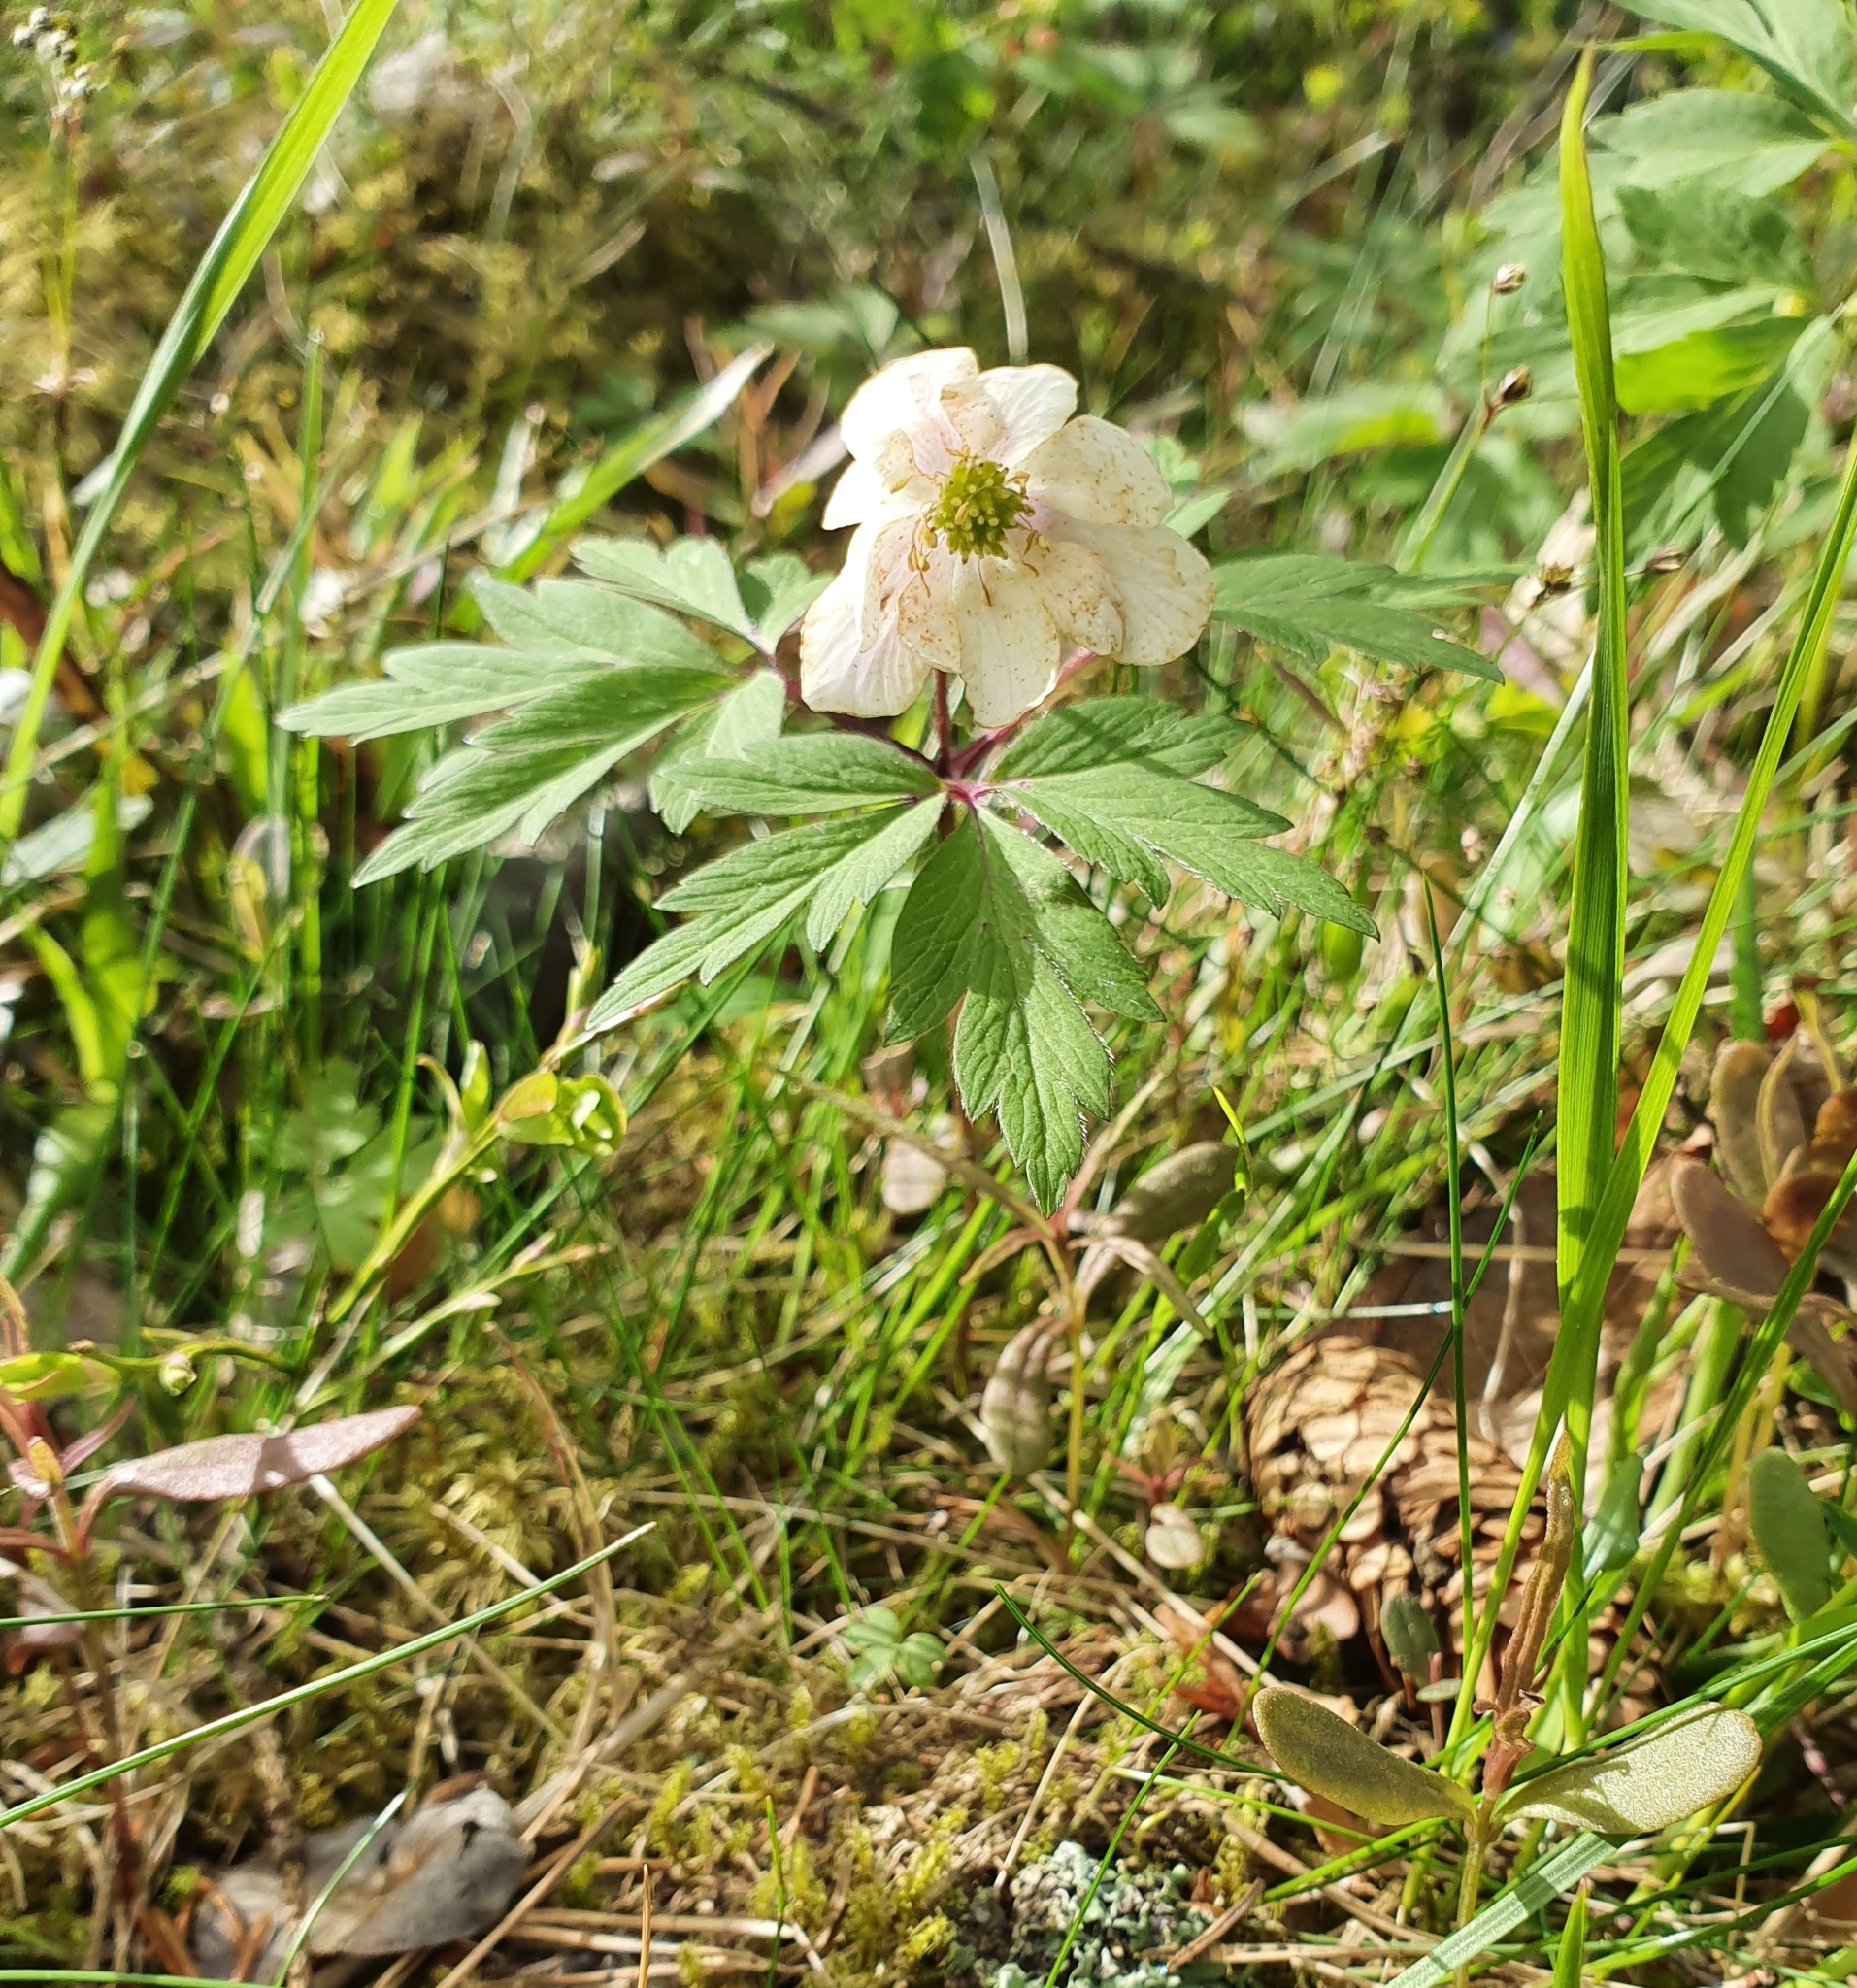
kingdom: Plantae
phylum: Tracheophyta
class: Magnoliopsida
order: Ranunculales
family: Ranunculaceae
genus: Anemone
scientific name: Anemone nemorosa
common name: Wood anemone
